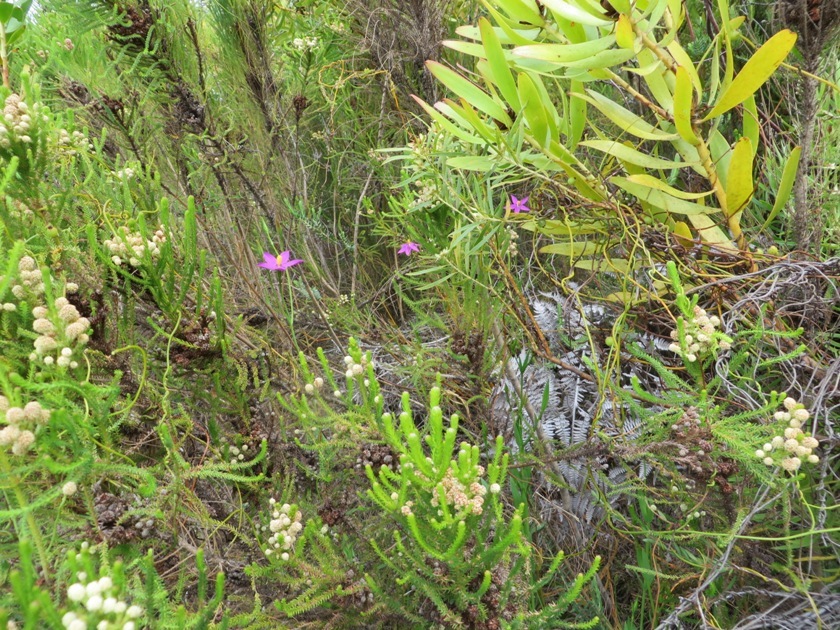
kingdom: Plantae
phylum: Tracheophyta
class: Magnoliopsida
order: Gentianales
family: Gentianaceae
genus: Chironia
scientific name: Chironia jasminoides
